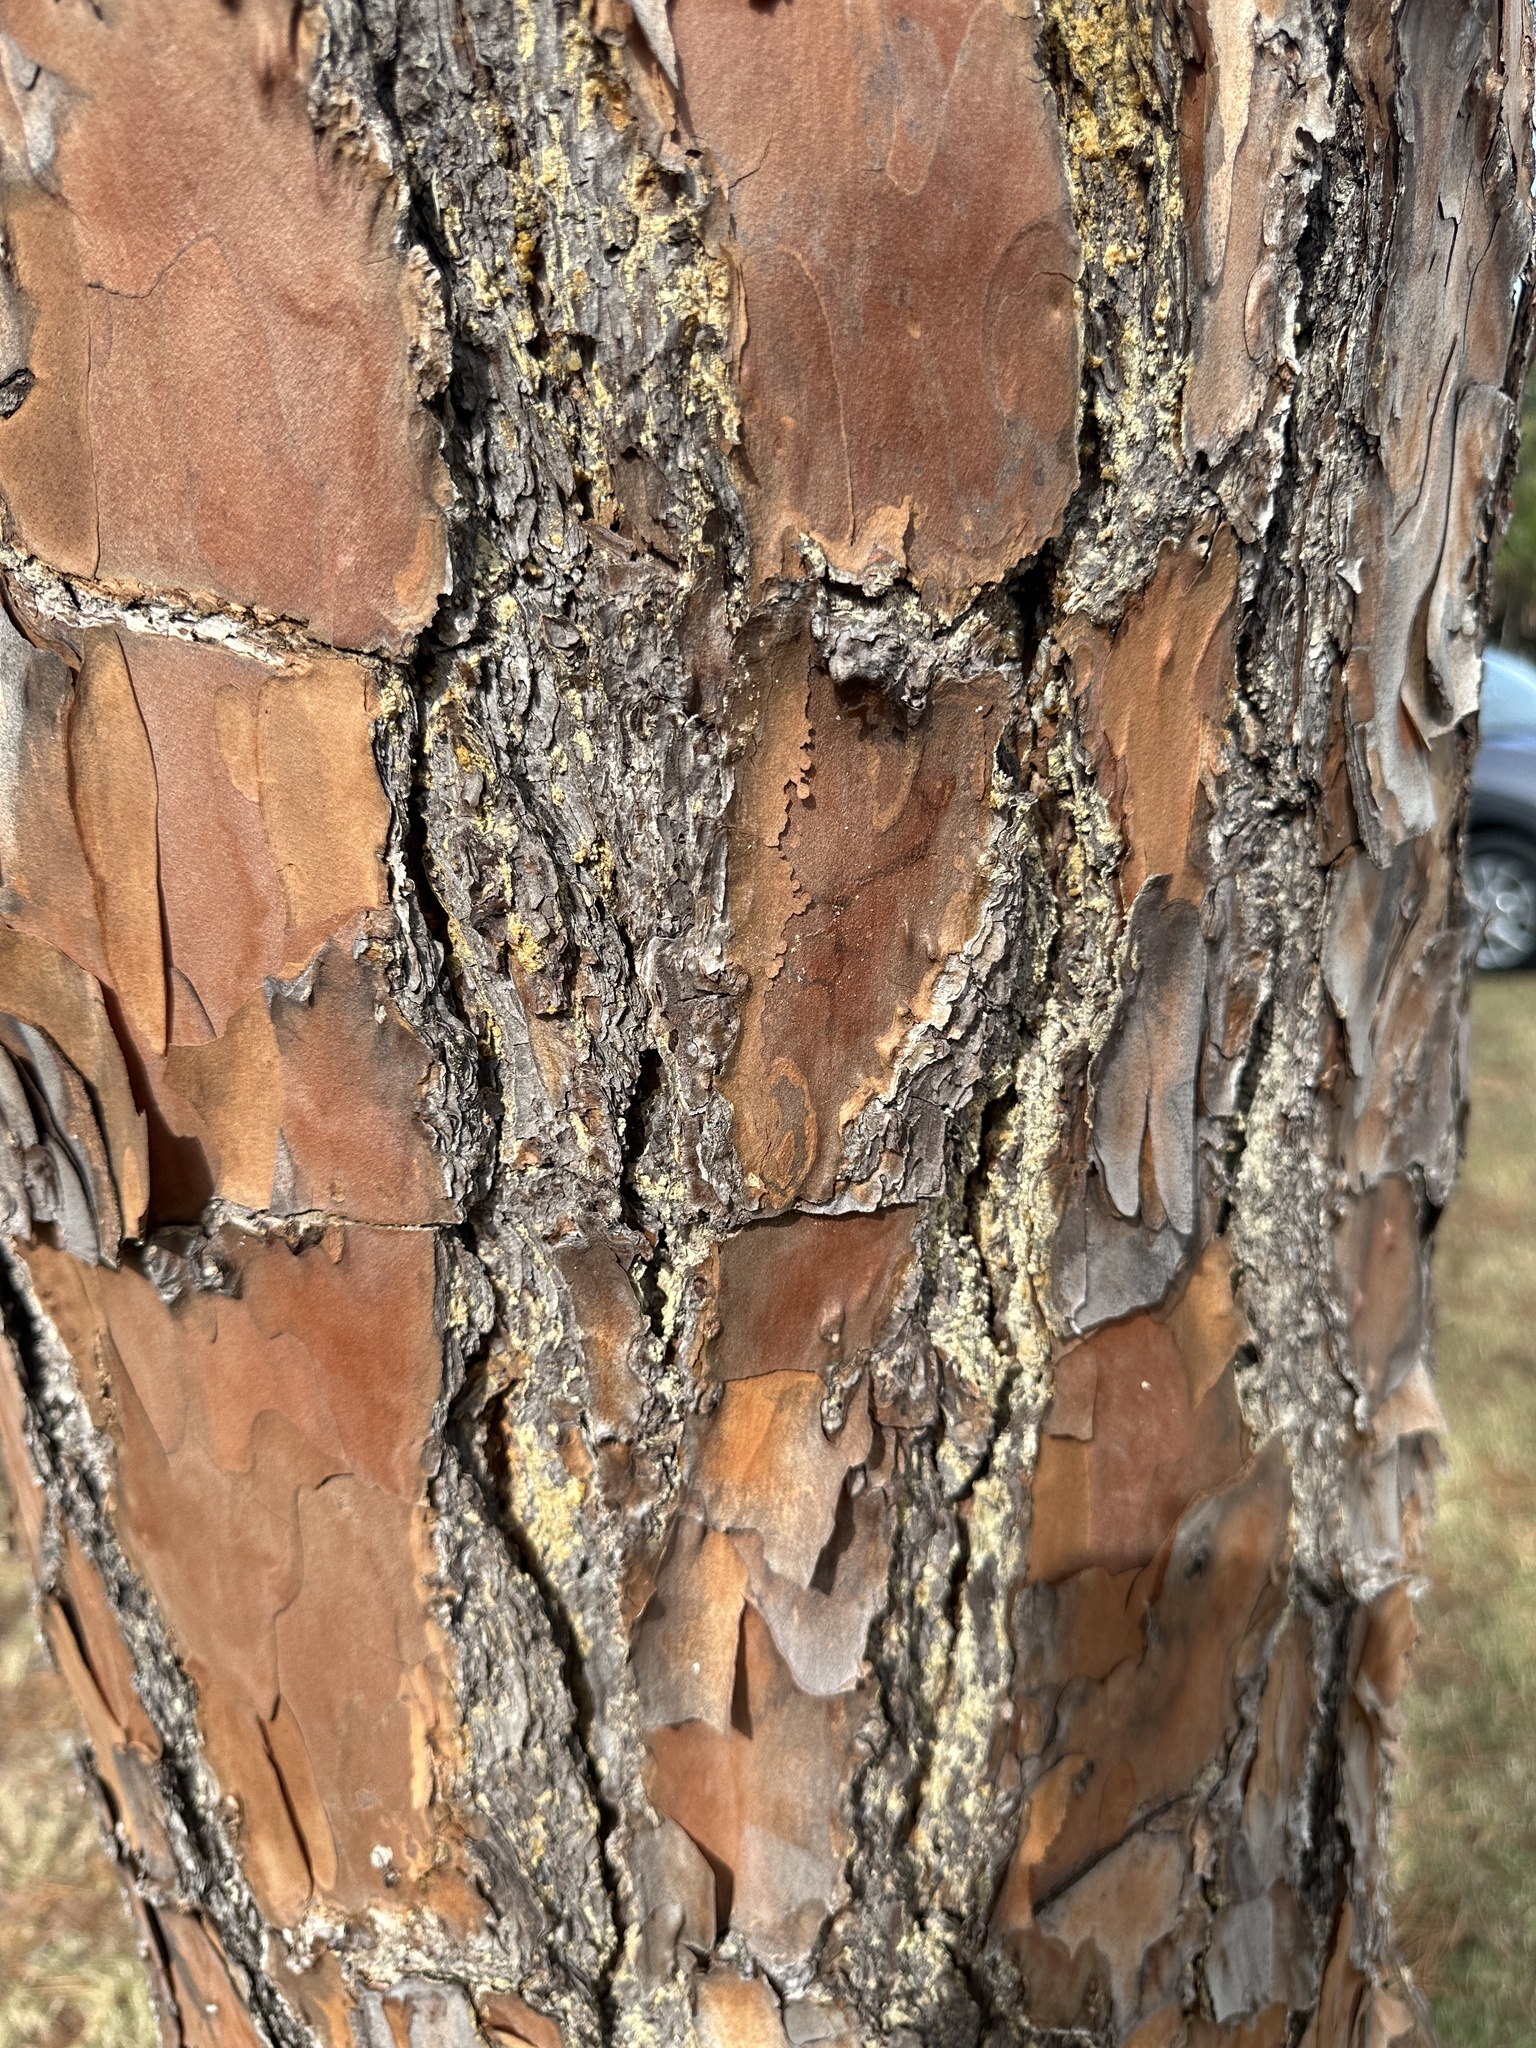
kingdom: Plantae
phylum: Tracheophyta
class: Pinopsida
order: Pinales
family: Pinaceae
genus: Pinus
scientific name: Pinus elliottii
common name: Slash pine
